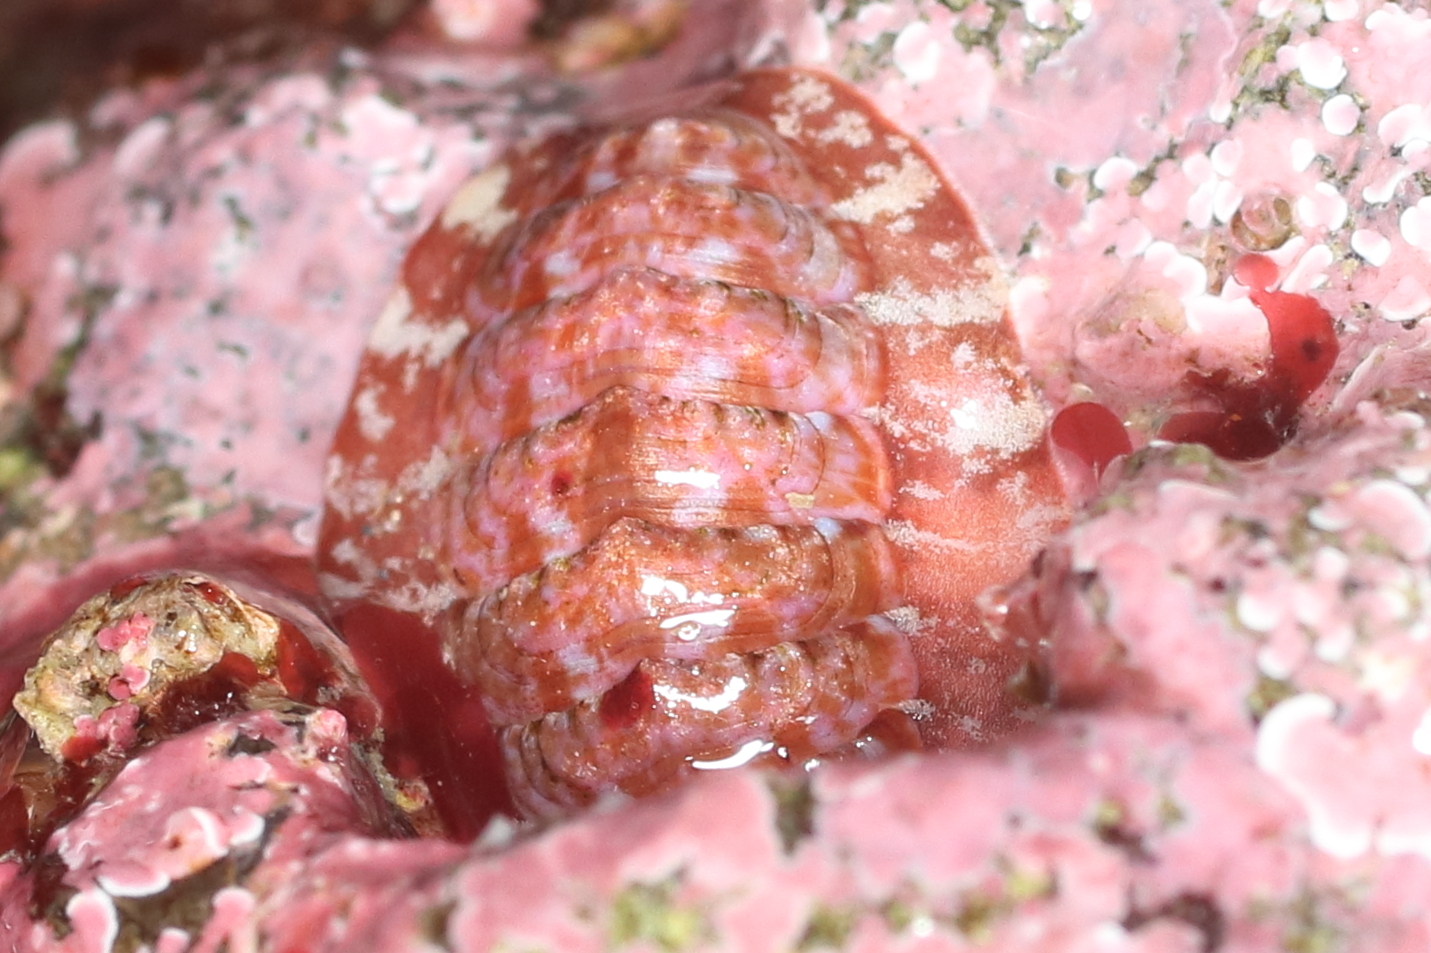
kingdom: Animalia
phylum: Mollusca
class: Polyplacophora
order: Chitonida
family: Tonicellidae
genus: Tonicella
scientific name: Tonicella venusta
